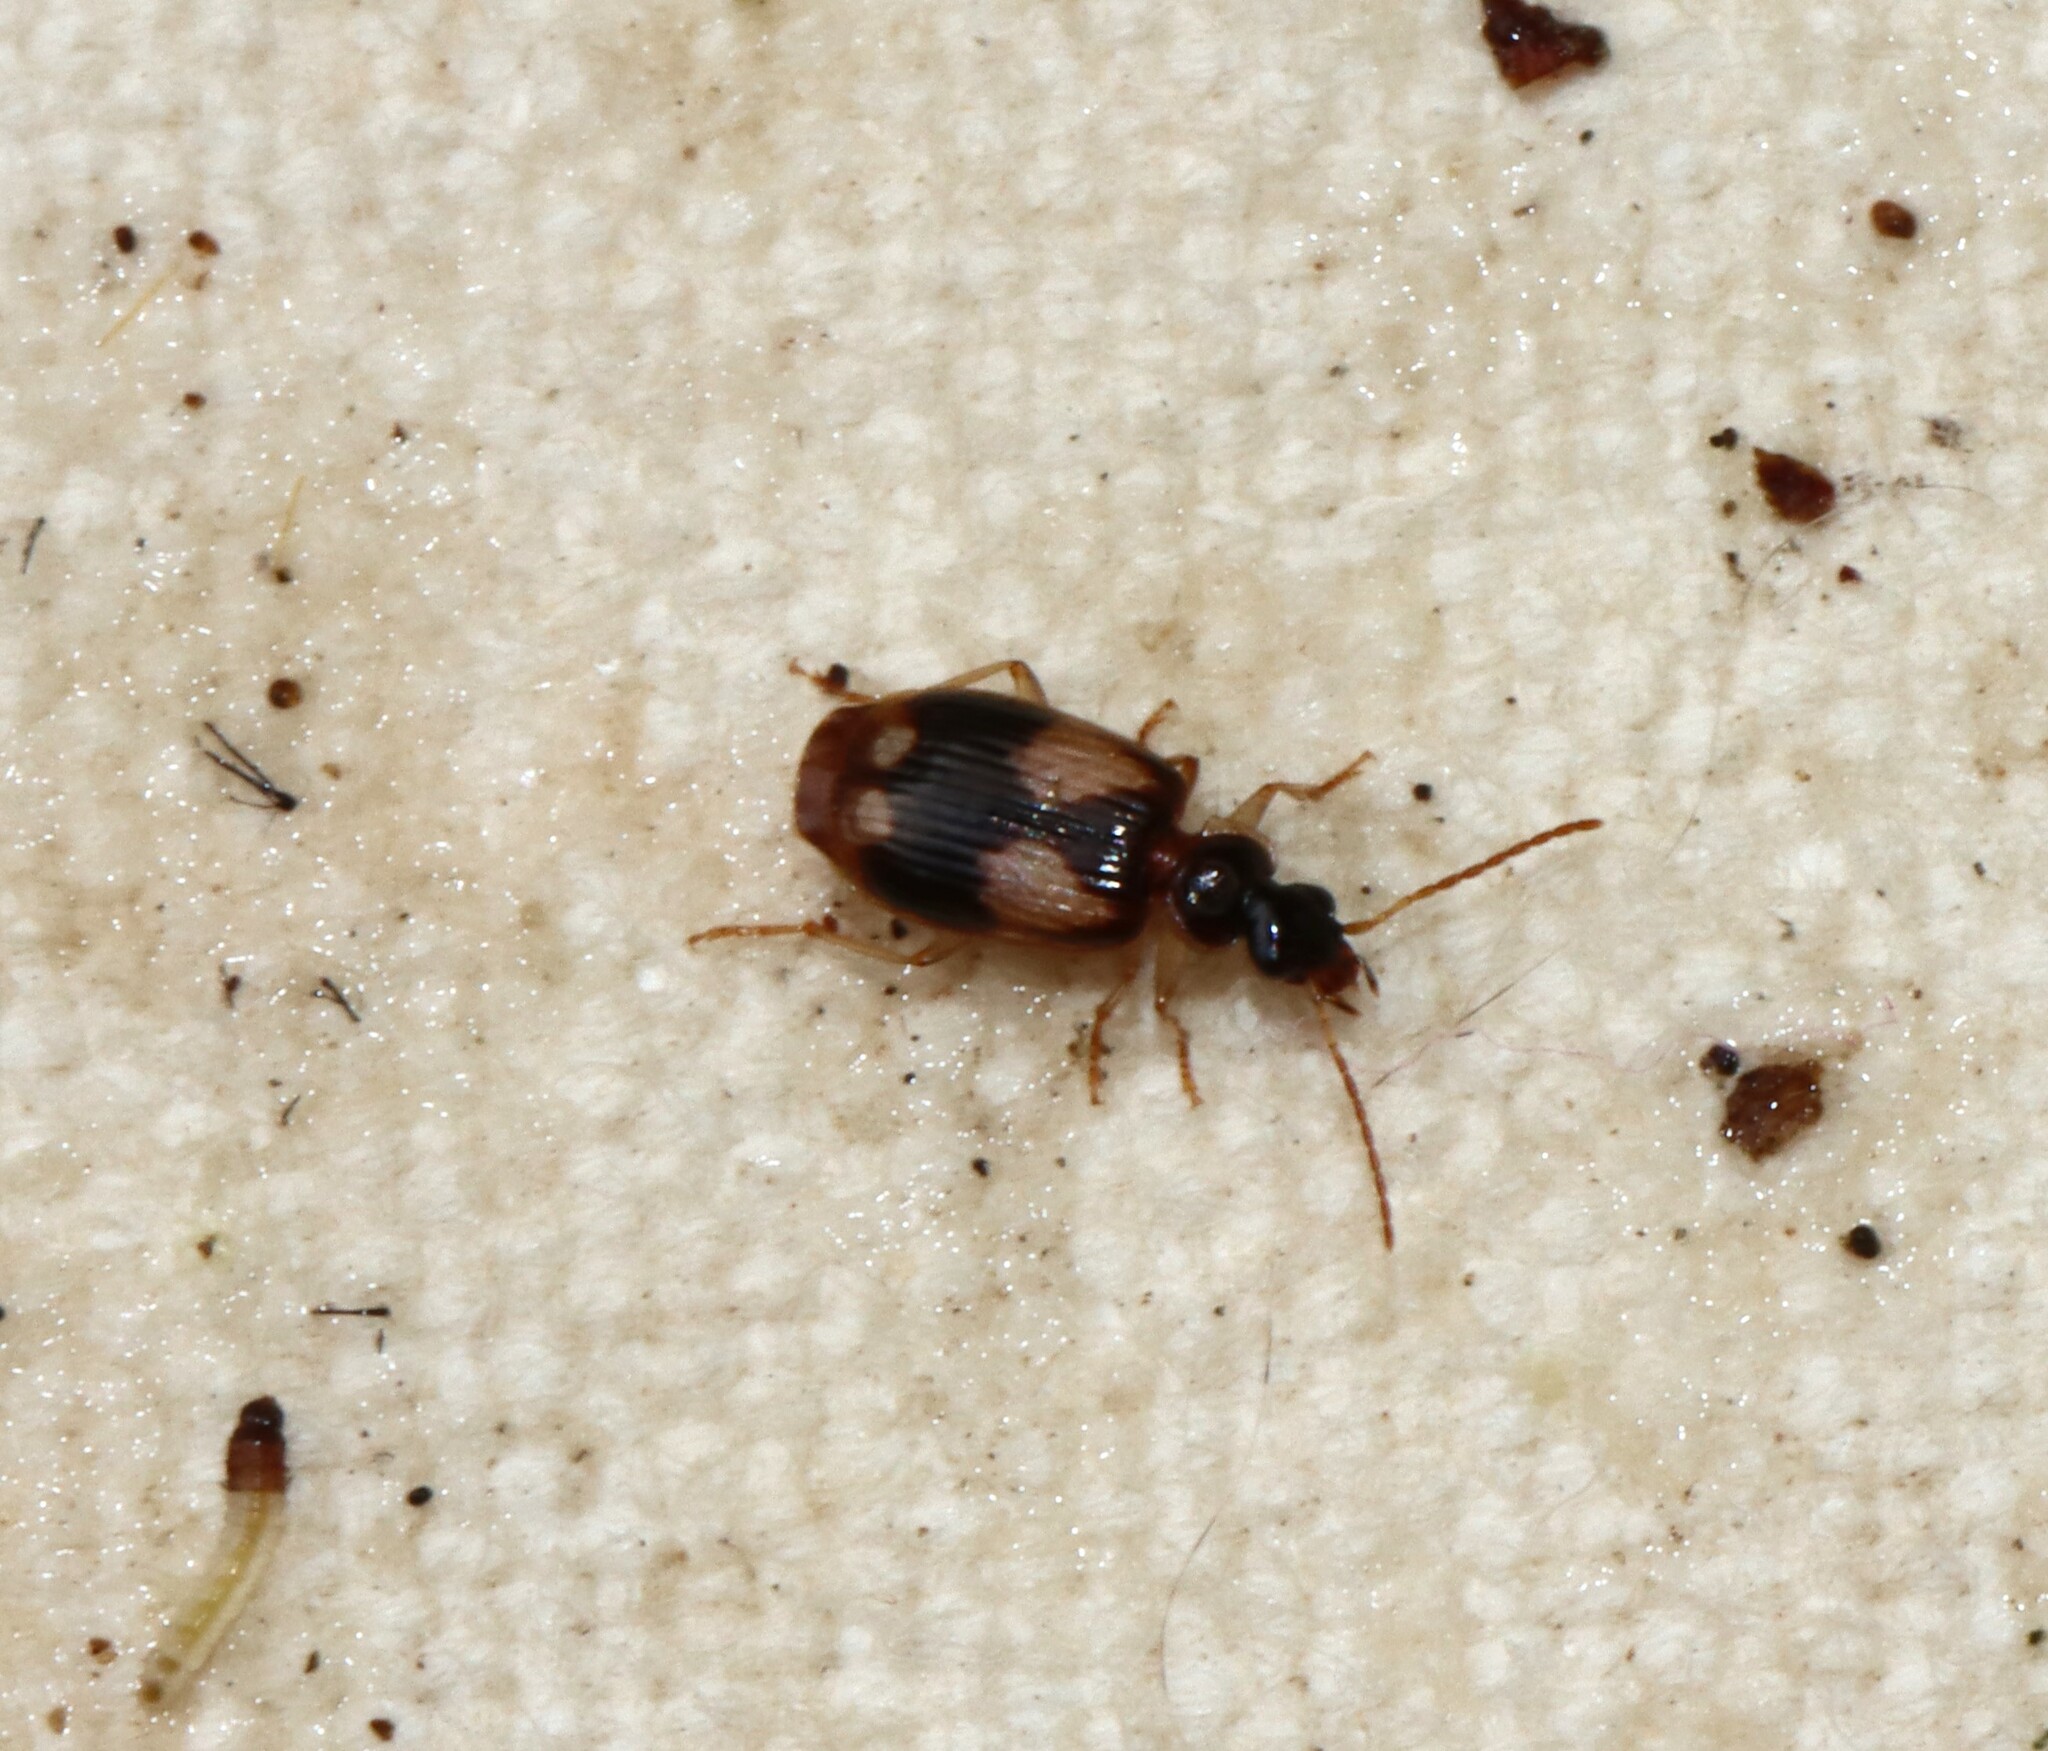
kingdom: Animalia
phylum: Arthropoda
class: Insecta
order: Coleoptera
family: Carabidae
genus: Lebia
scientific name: Lebia ornata
